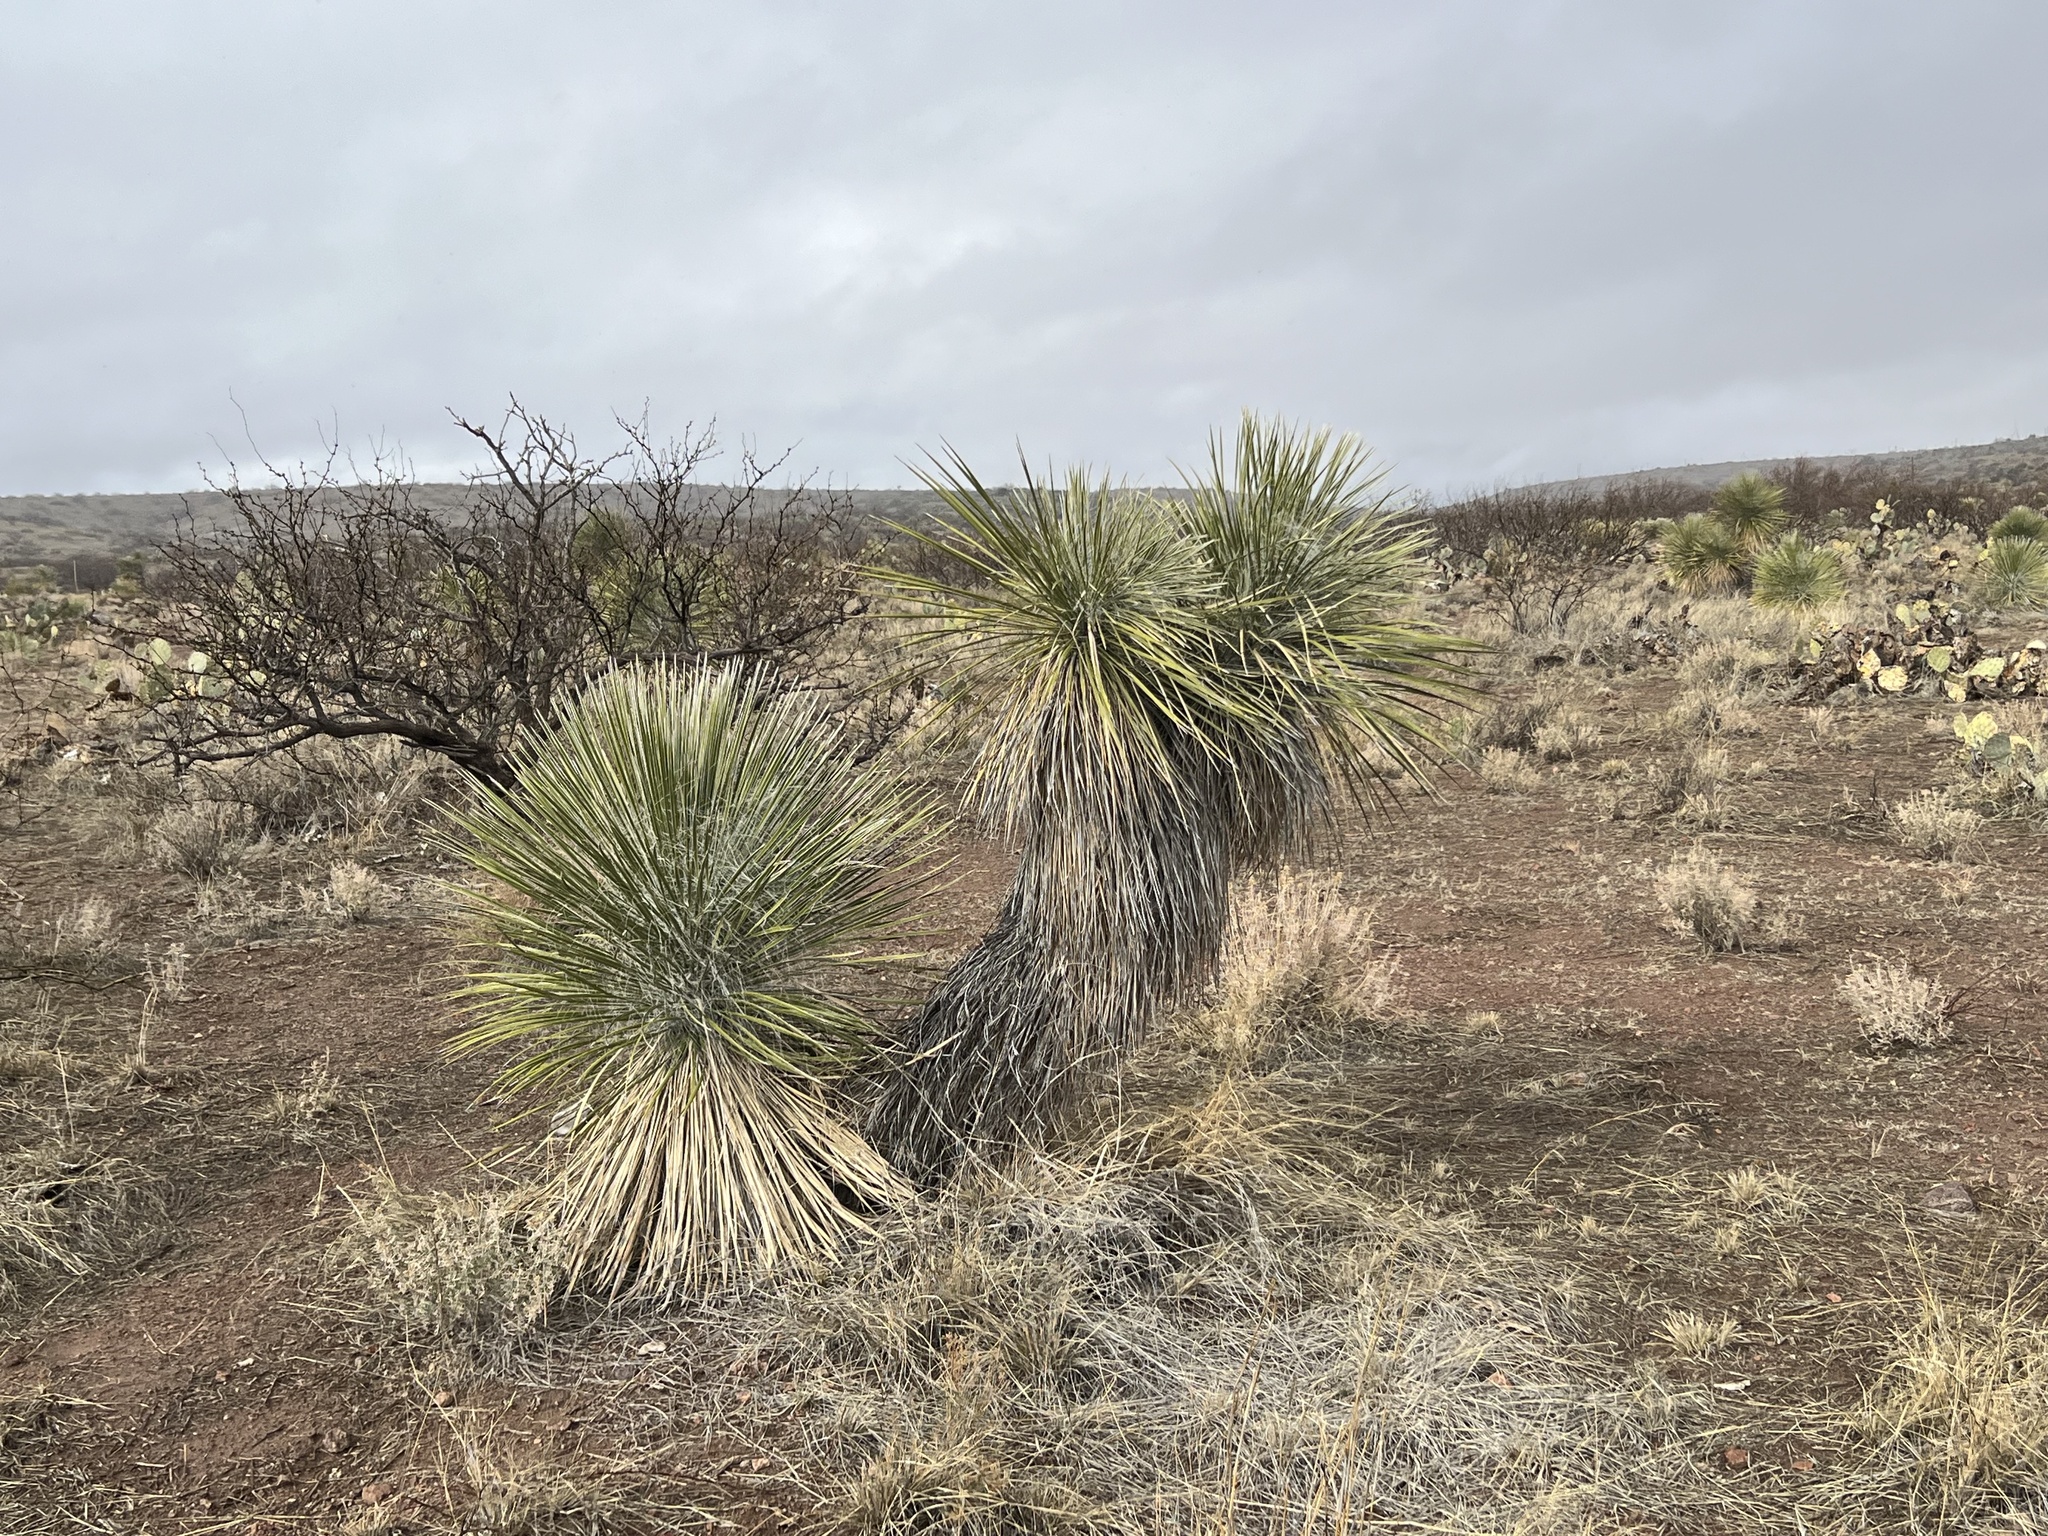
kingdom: Plantae
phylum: Tracheophyta
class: Liliopsida
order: Asparagales
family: Asparagaceae
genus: Yucca
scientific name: Yucca elata
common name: Palmella
